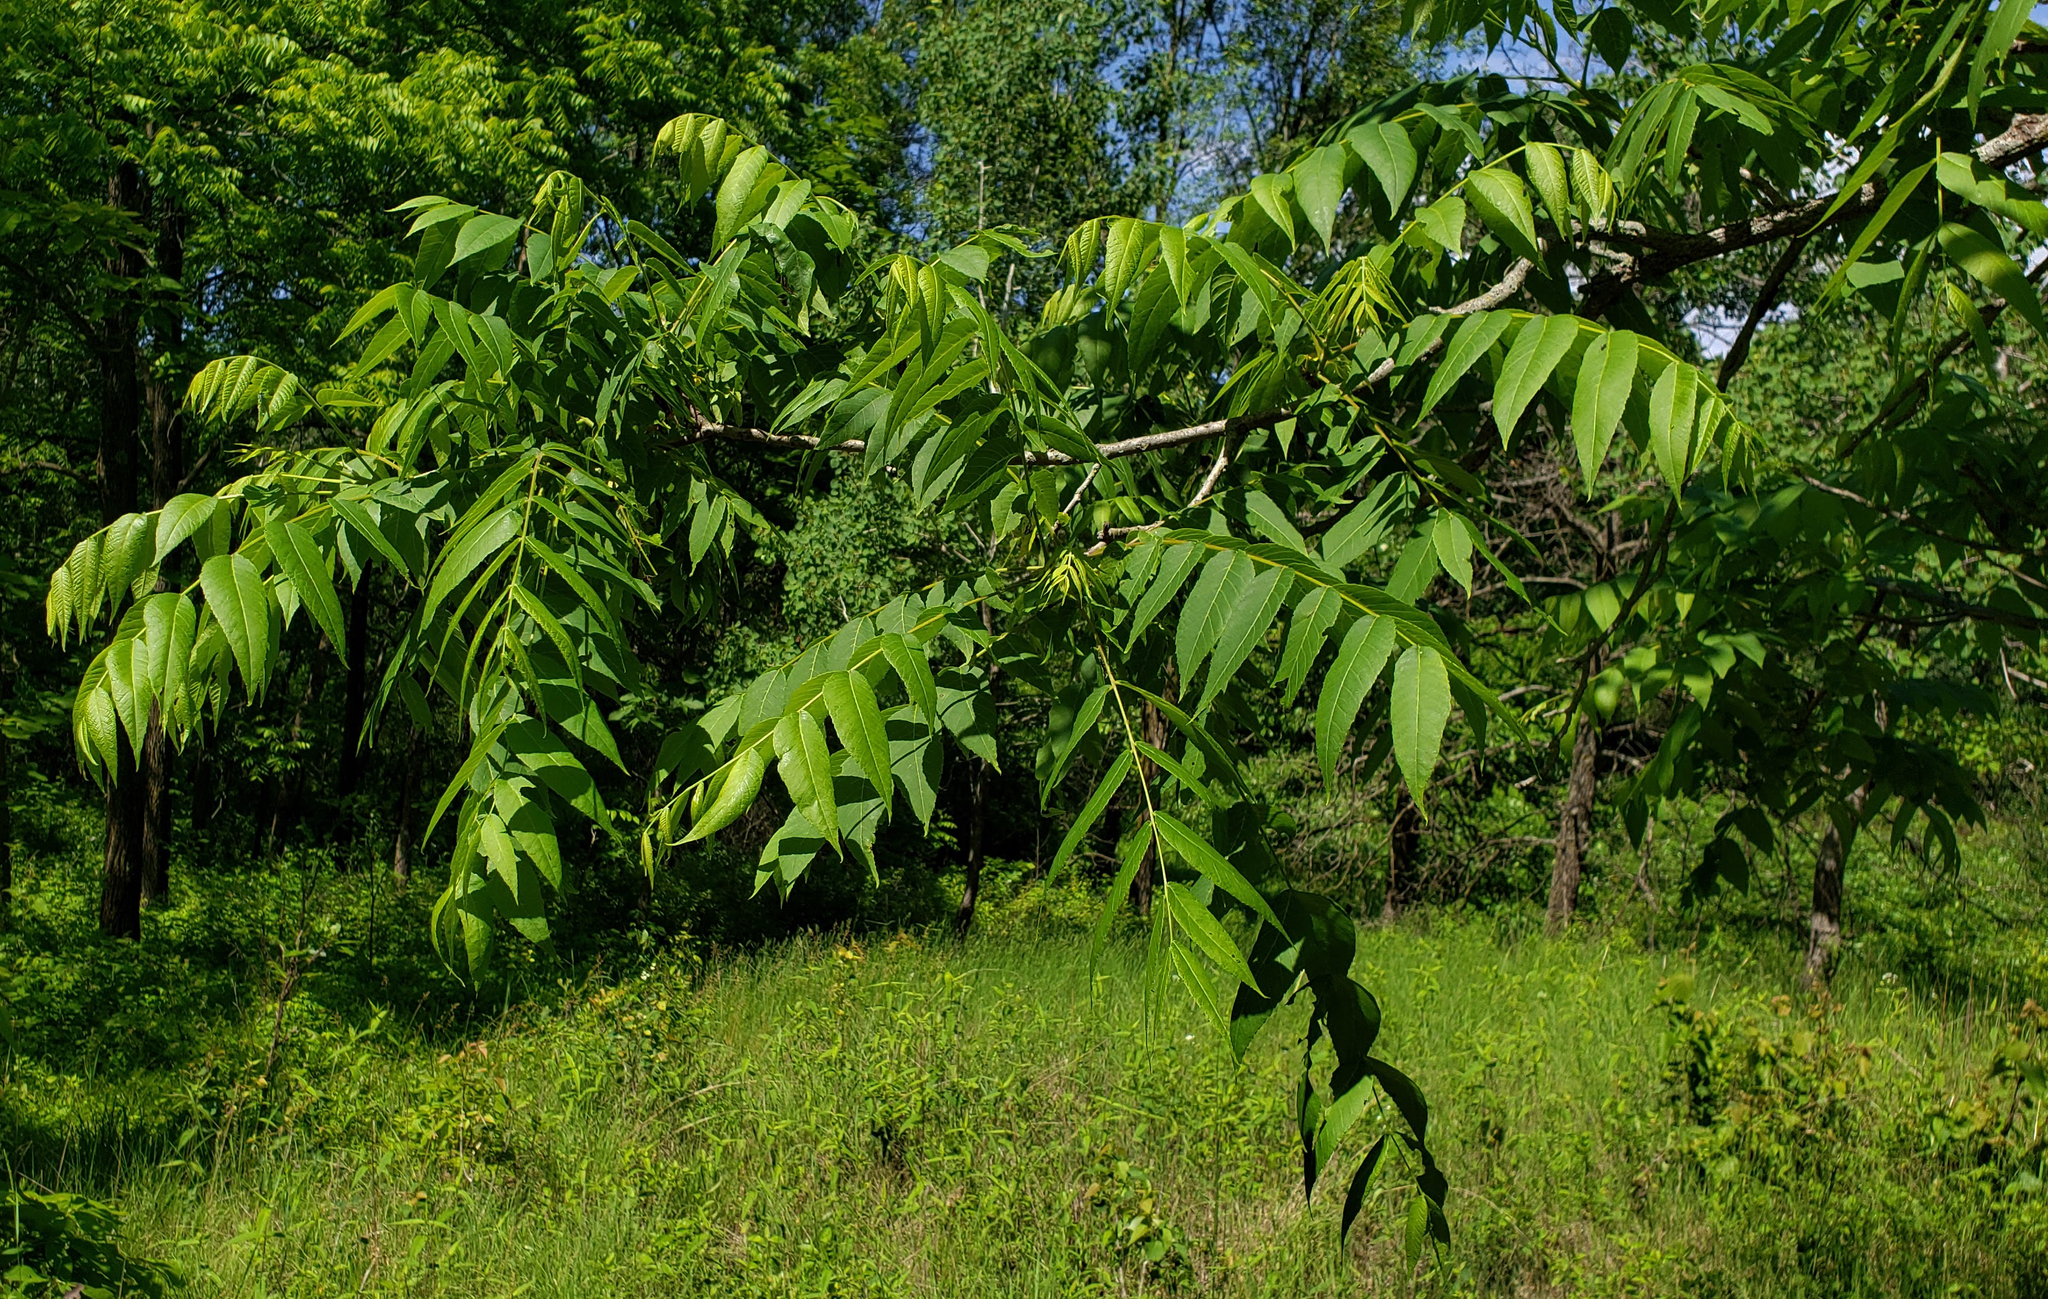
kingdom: Plantae
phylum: Tracheophyta
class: Magnoliopsida
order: Fagales
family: Juglandaceae
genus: Juglans
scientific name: Juglans nigra
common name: Black walnut
